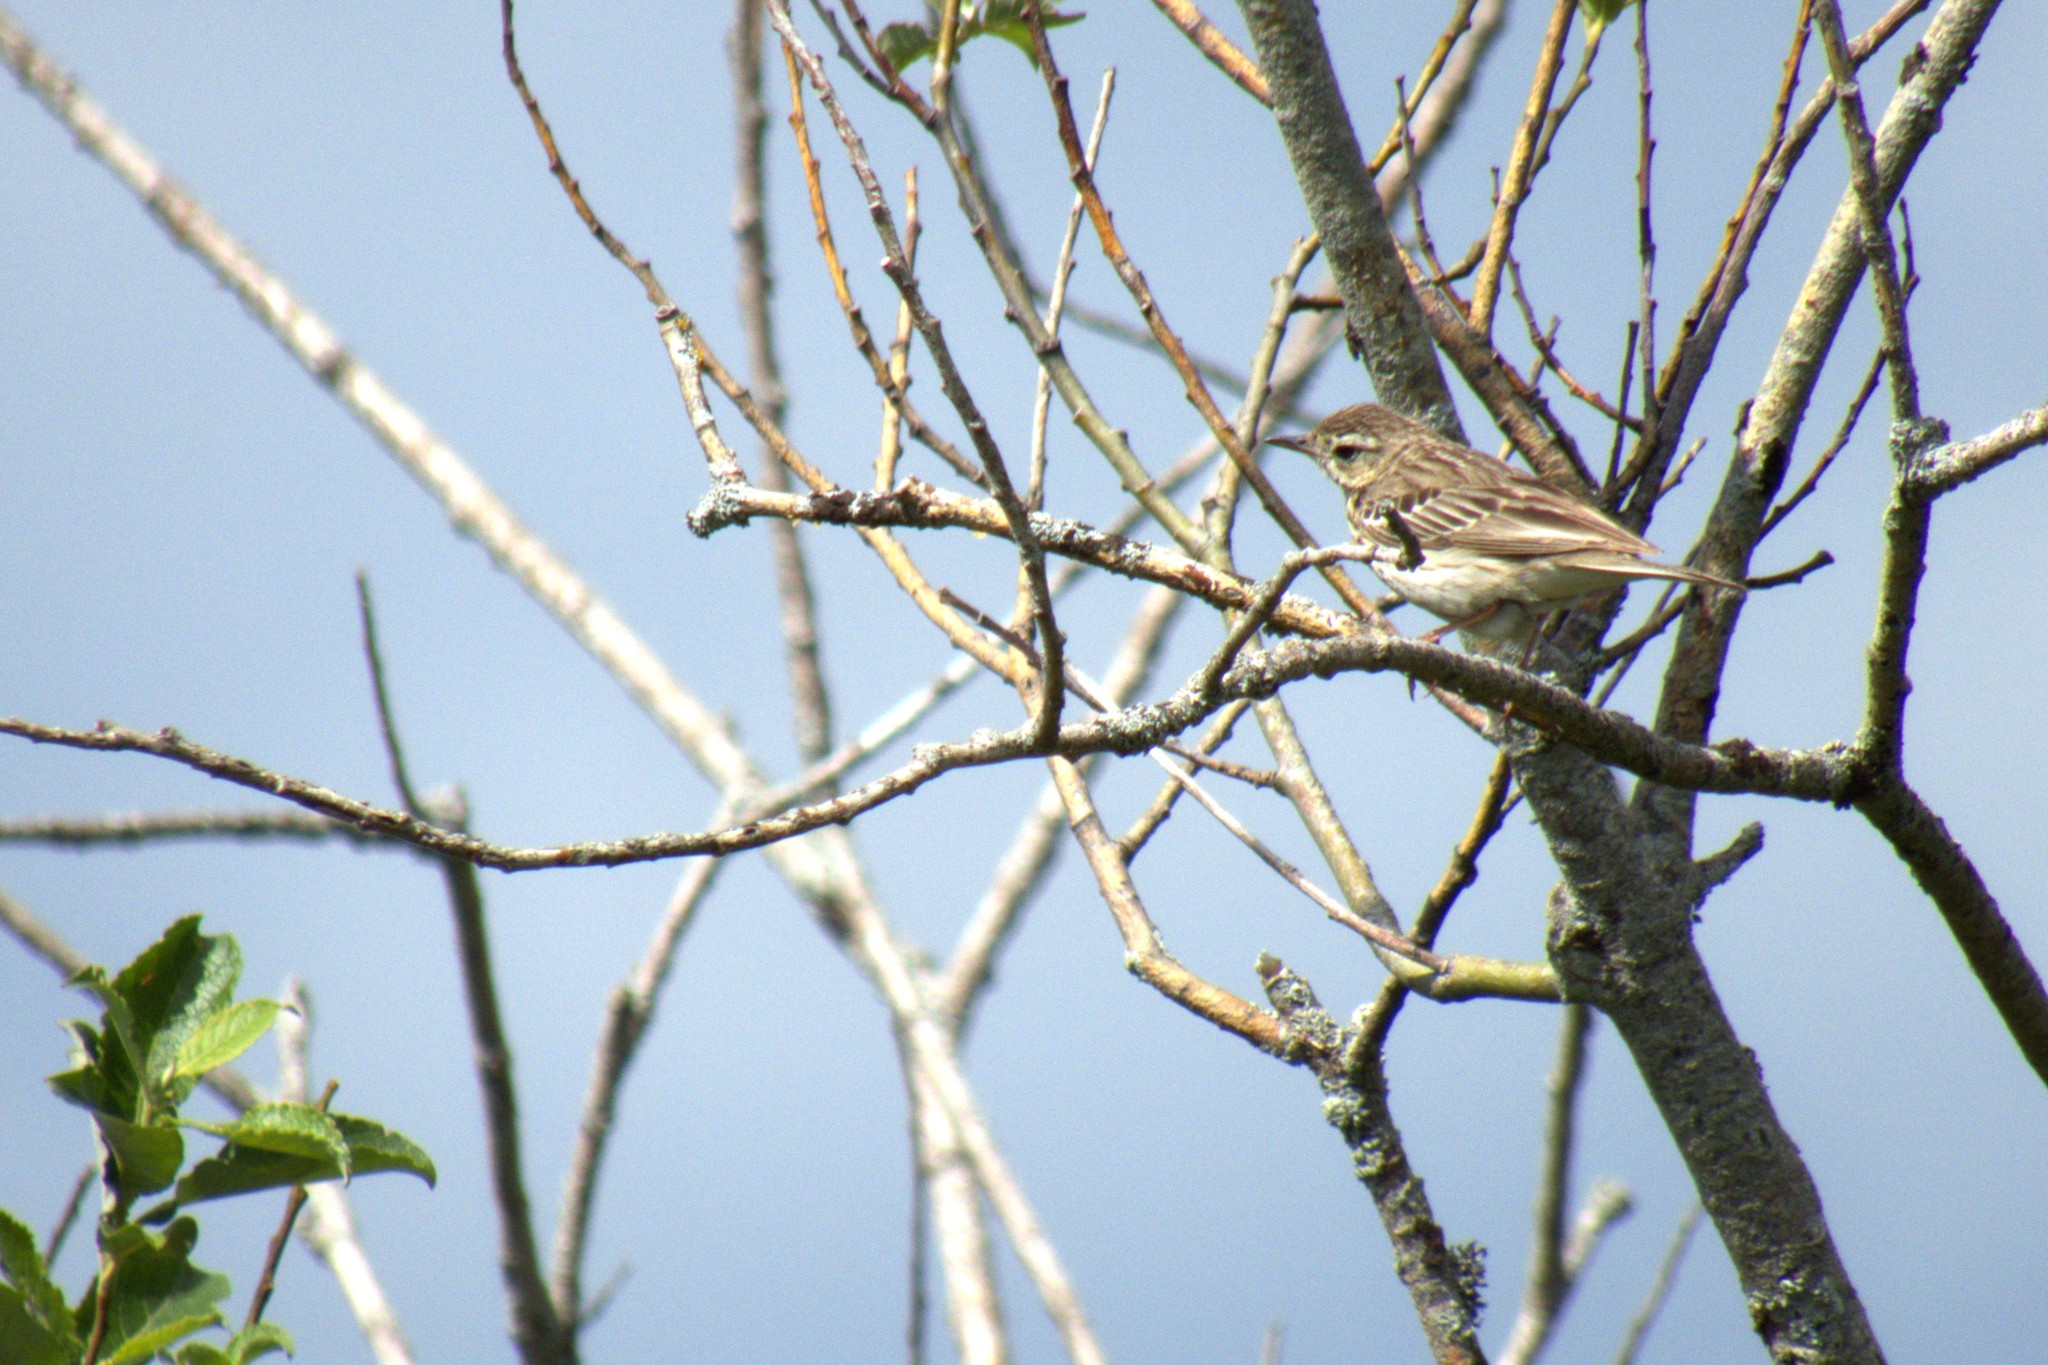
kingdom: Animalia
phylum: Chordata
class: Aves
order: Passeriformes
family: Motacillidae
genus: Anthus
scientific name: Anthus trivialis
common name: Tree pipit
